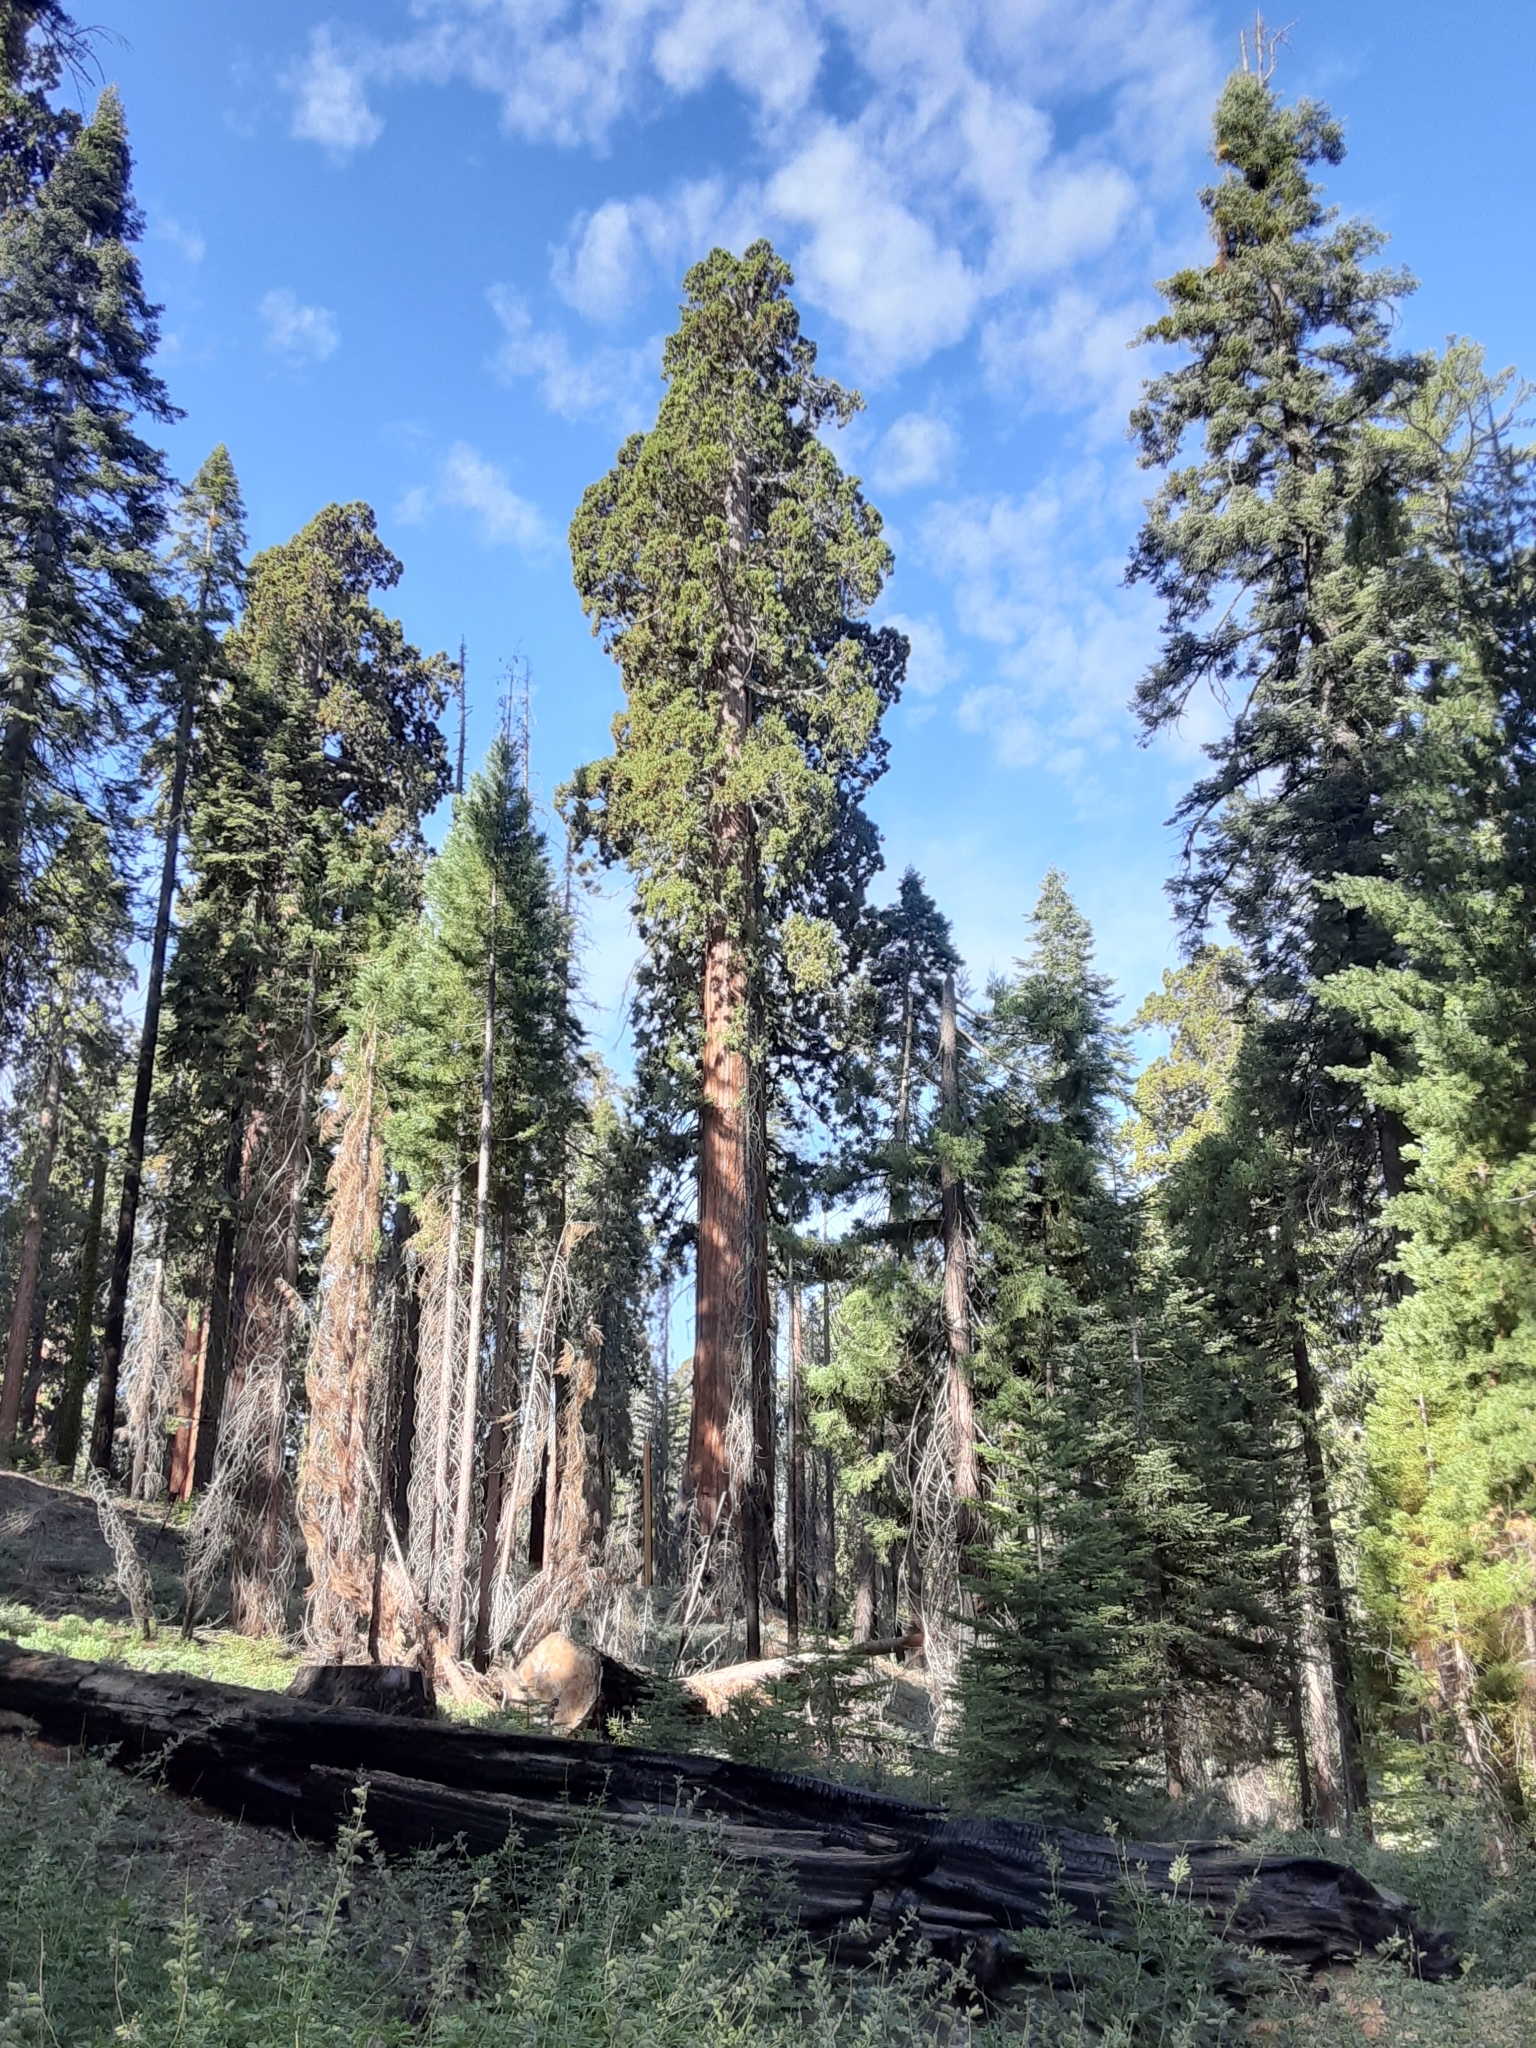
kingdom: Plantae
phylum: Tracheophyta
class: Pinopsida
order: Pinales
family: Cupressaceae
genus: Sequoiadendron
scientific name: Sequoiadendron giganteum
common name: Wellingtonia
